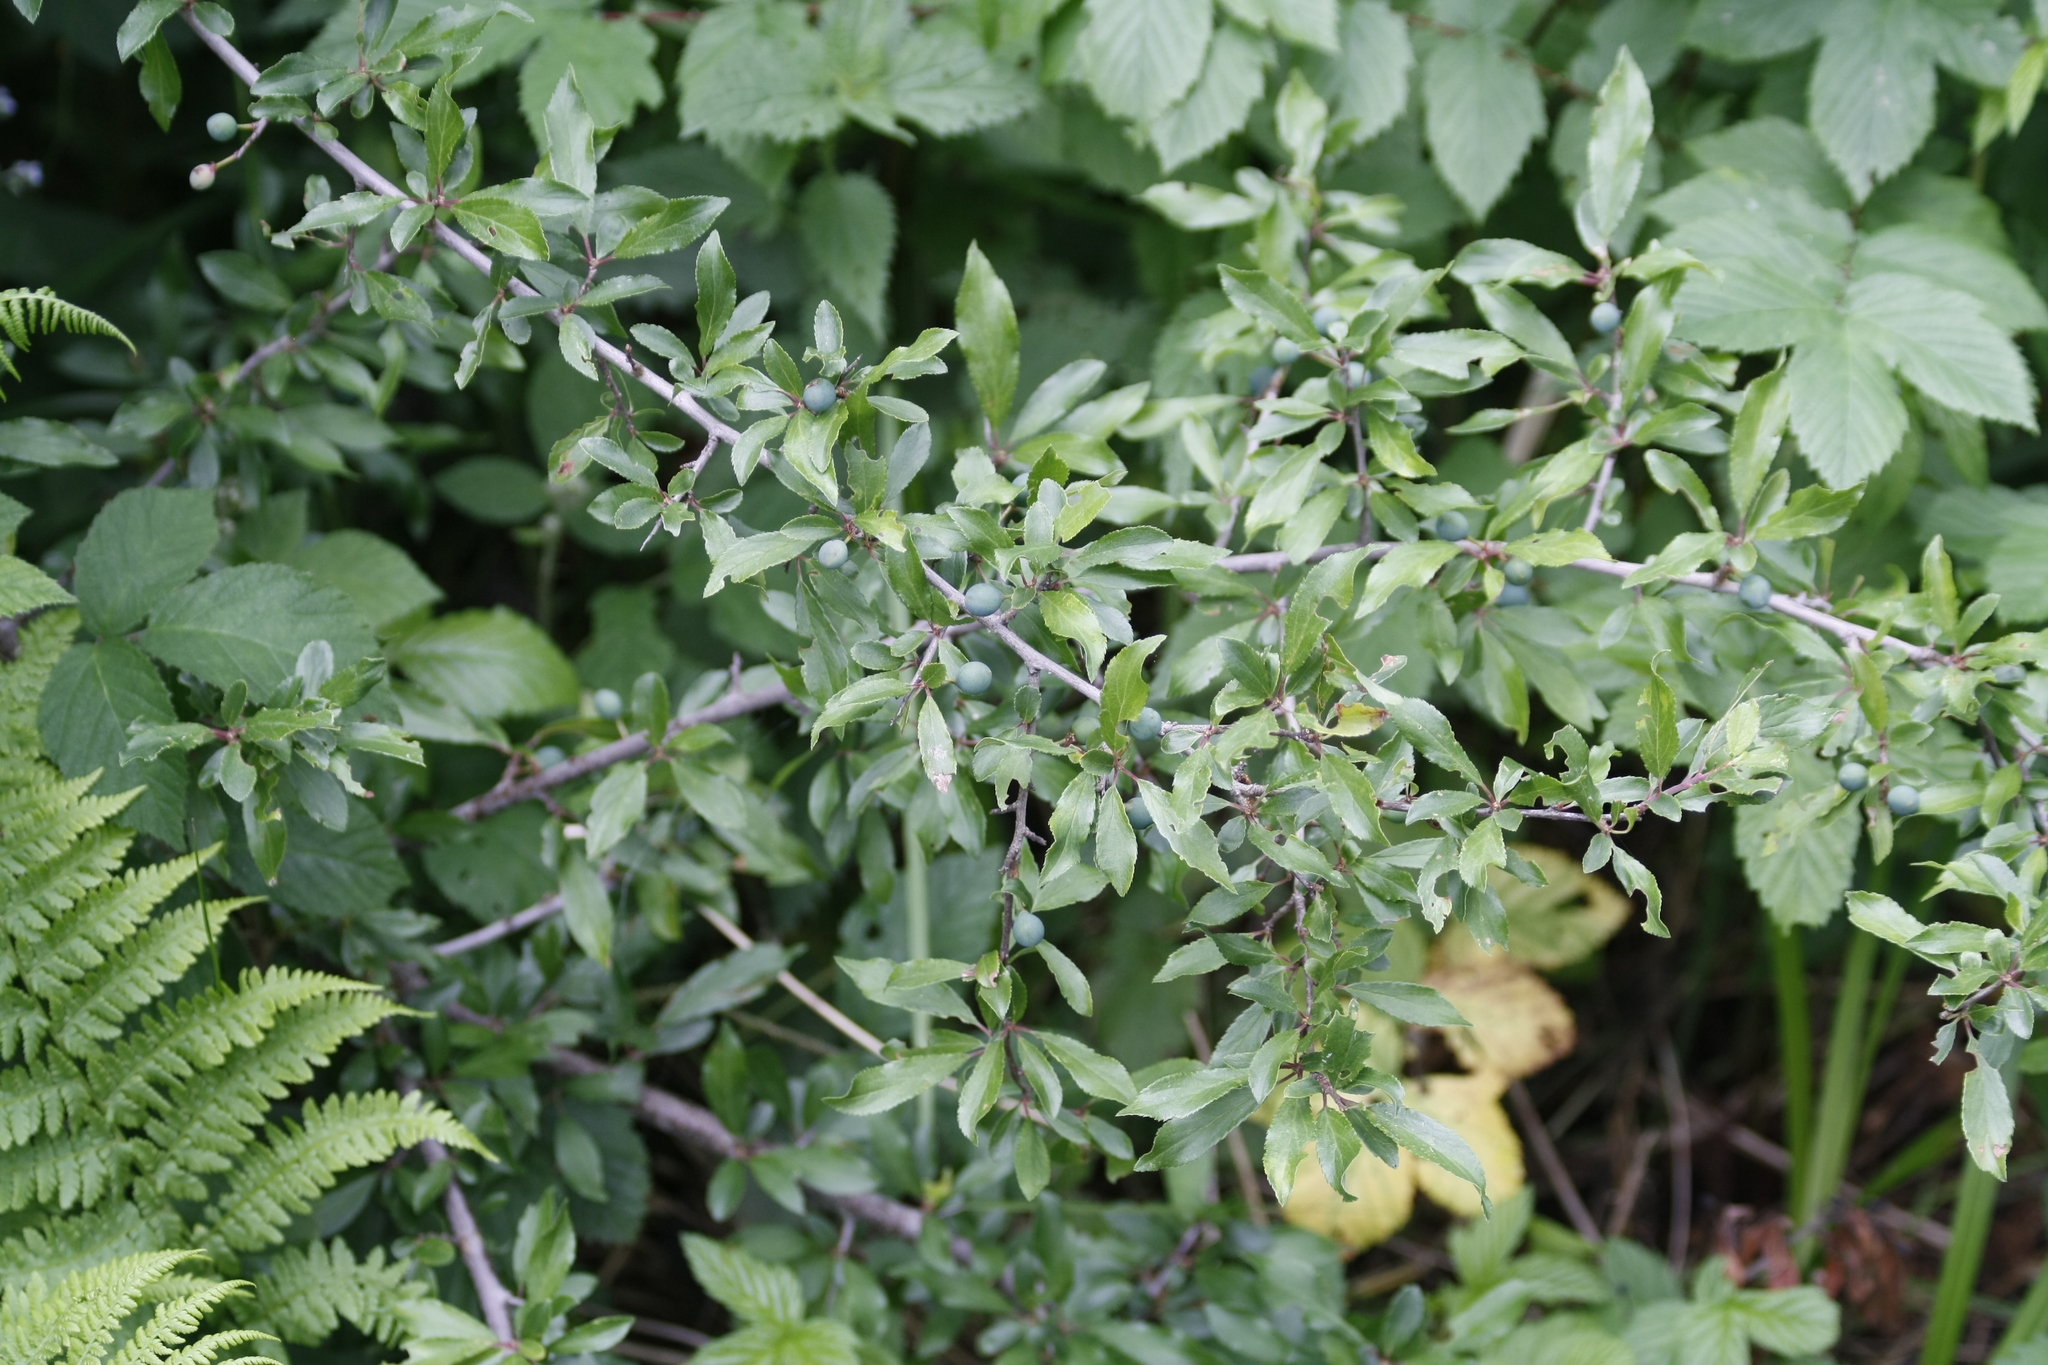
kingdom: Plantae
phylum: Tracheophyta
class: Magnoliopsida
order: Rosales
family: Rosaceae
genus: Prunus
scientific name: Prunus spinosa
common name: Blackthorn
